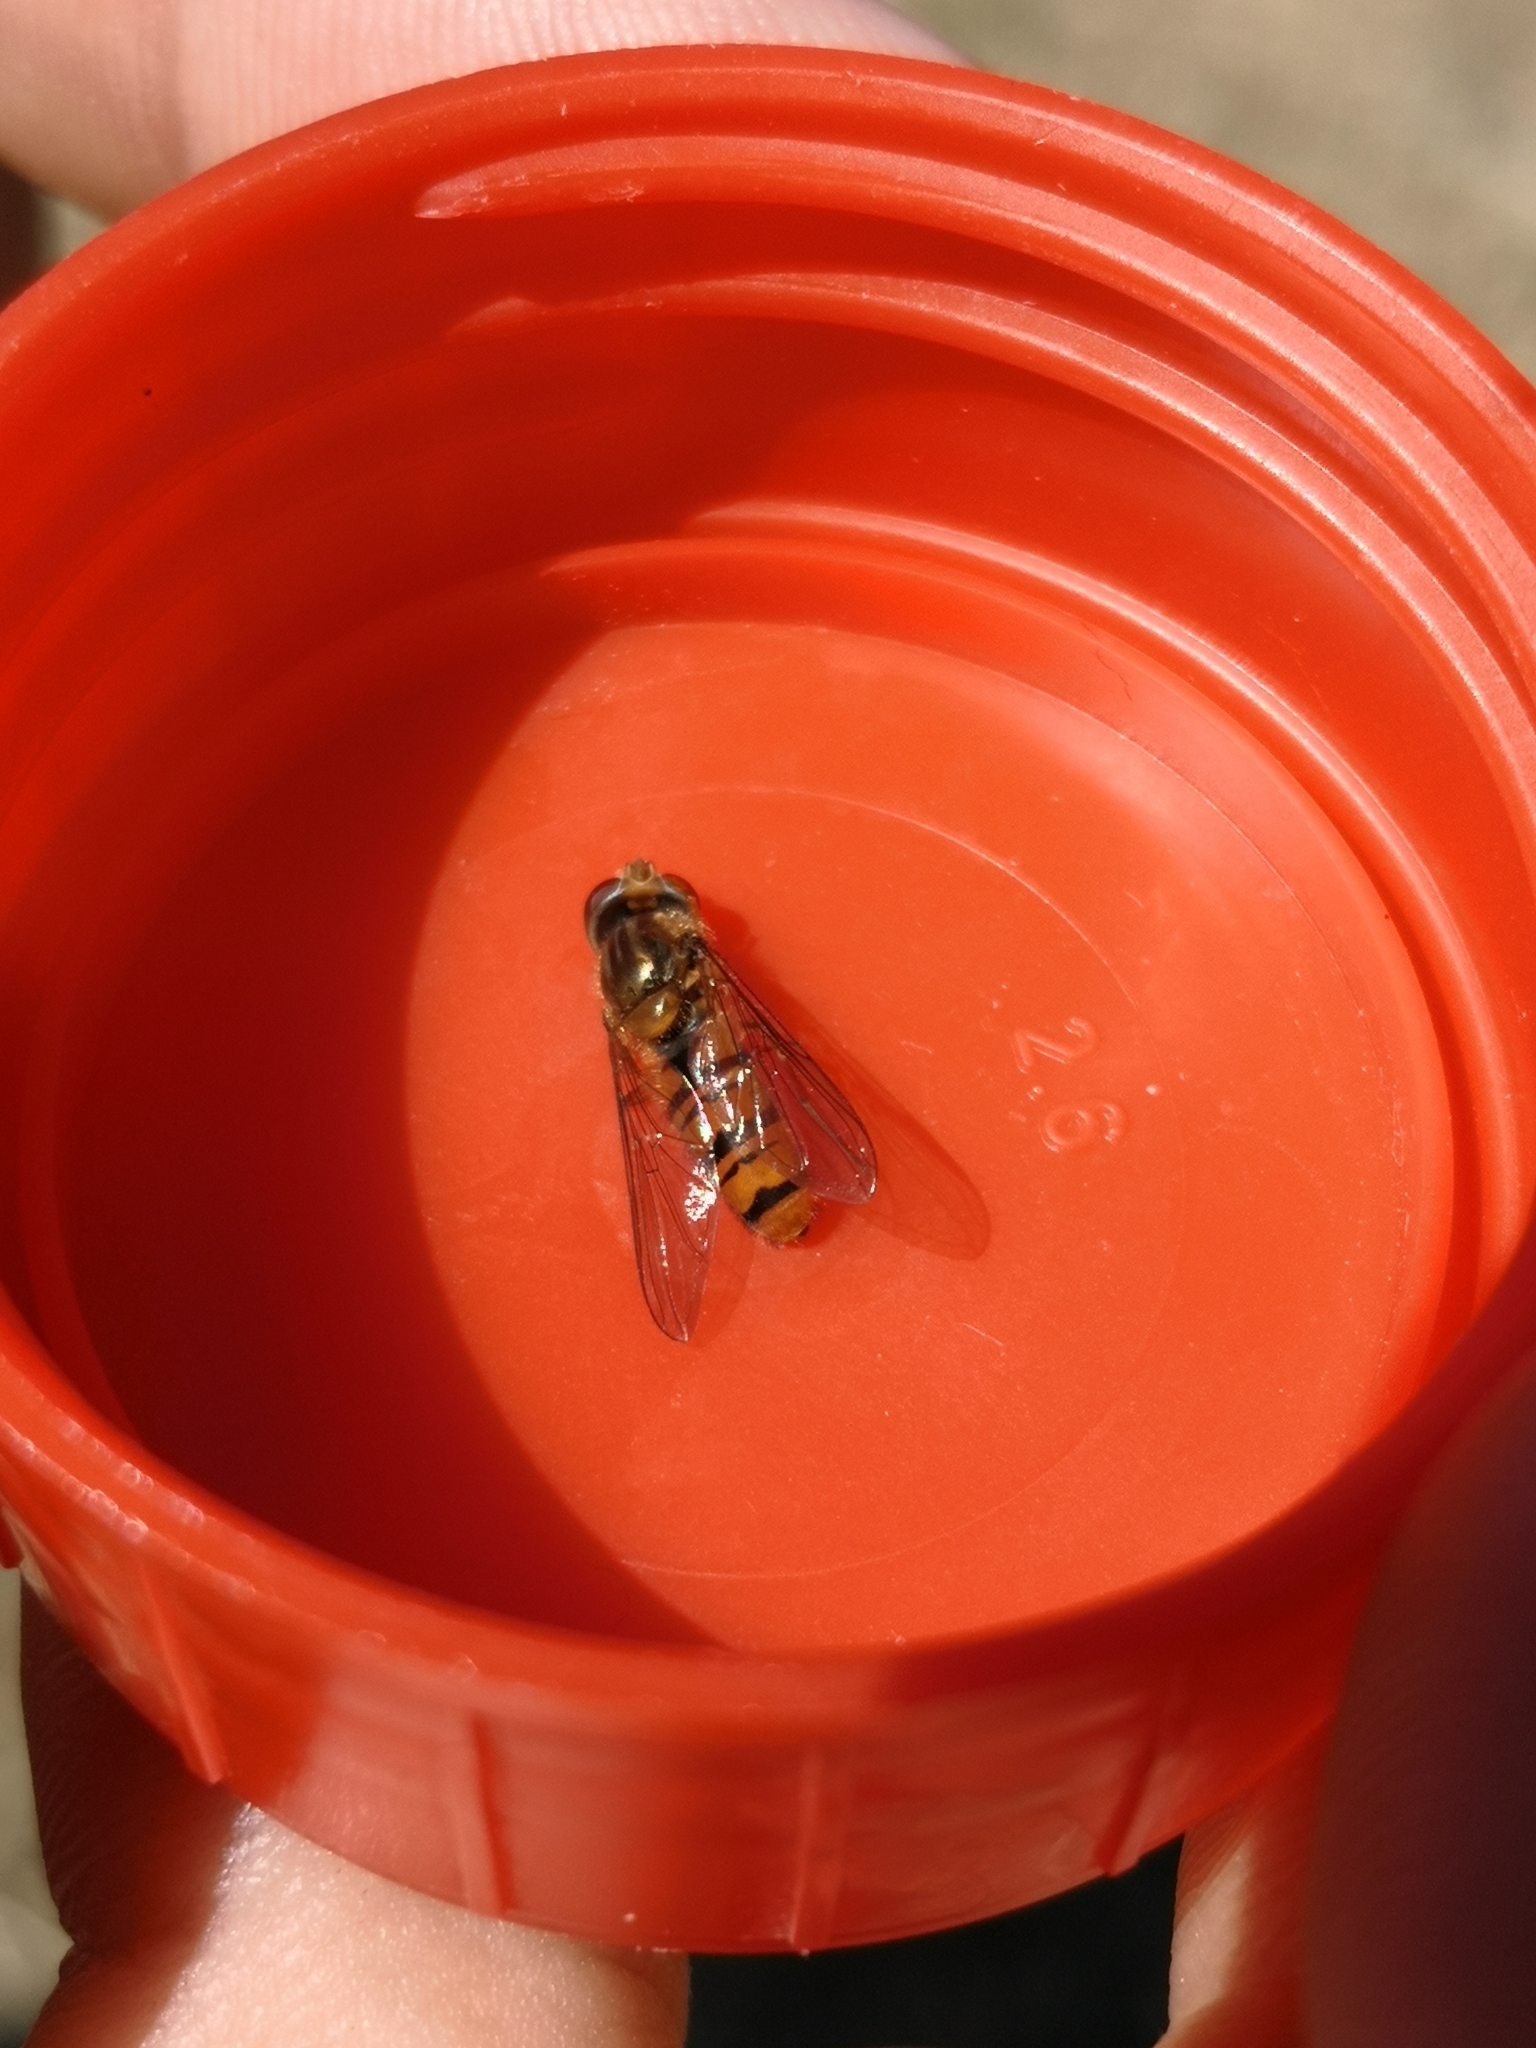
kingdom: Animalia
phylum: Arthropoda
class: Insecta
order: Diptera
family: Syrphidae
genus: Episyrphus
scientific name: Episyrphus balteatus
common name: Marmalade hoverfly
